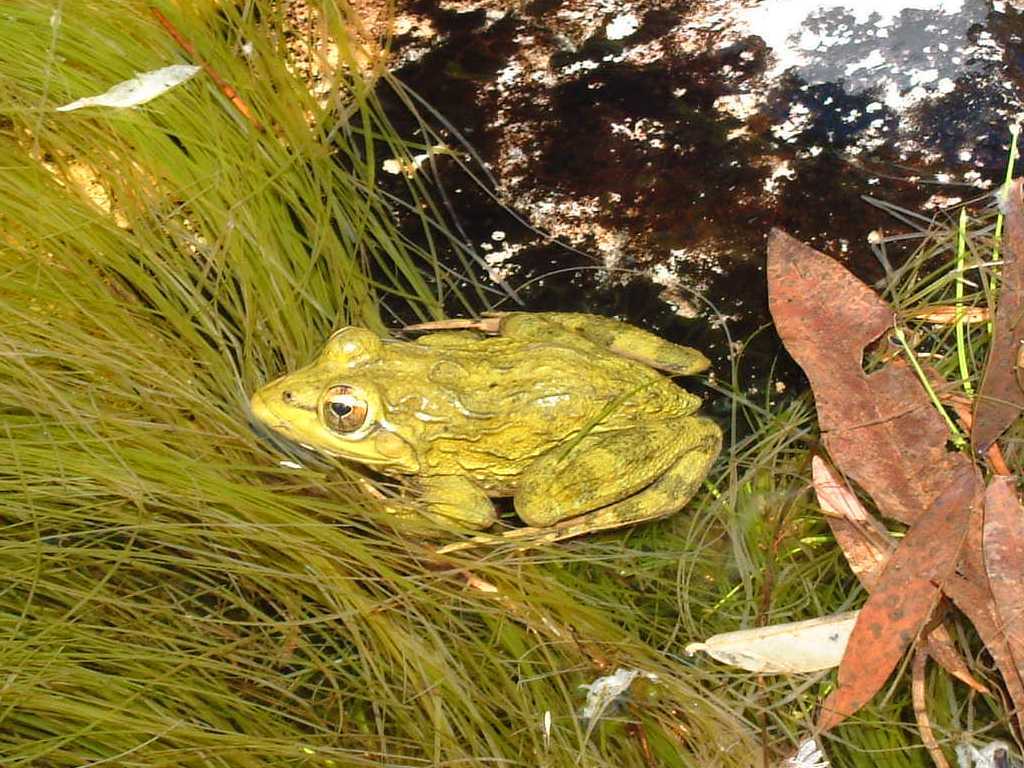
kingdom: Animalia
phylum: Chordata
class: Amphibia
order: Anura
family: Pyxicephalidae
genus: Amietia
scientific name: Amietia fuscigula
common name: Cape rana
